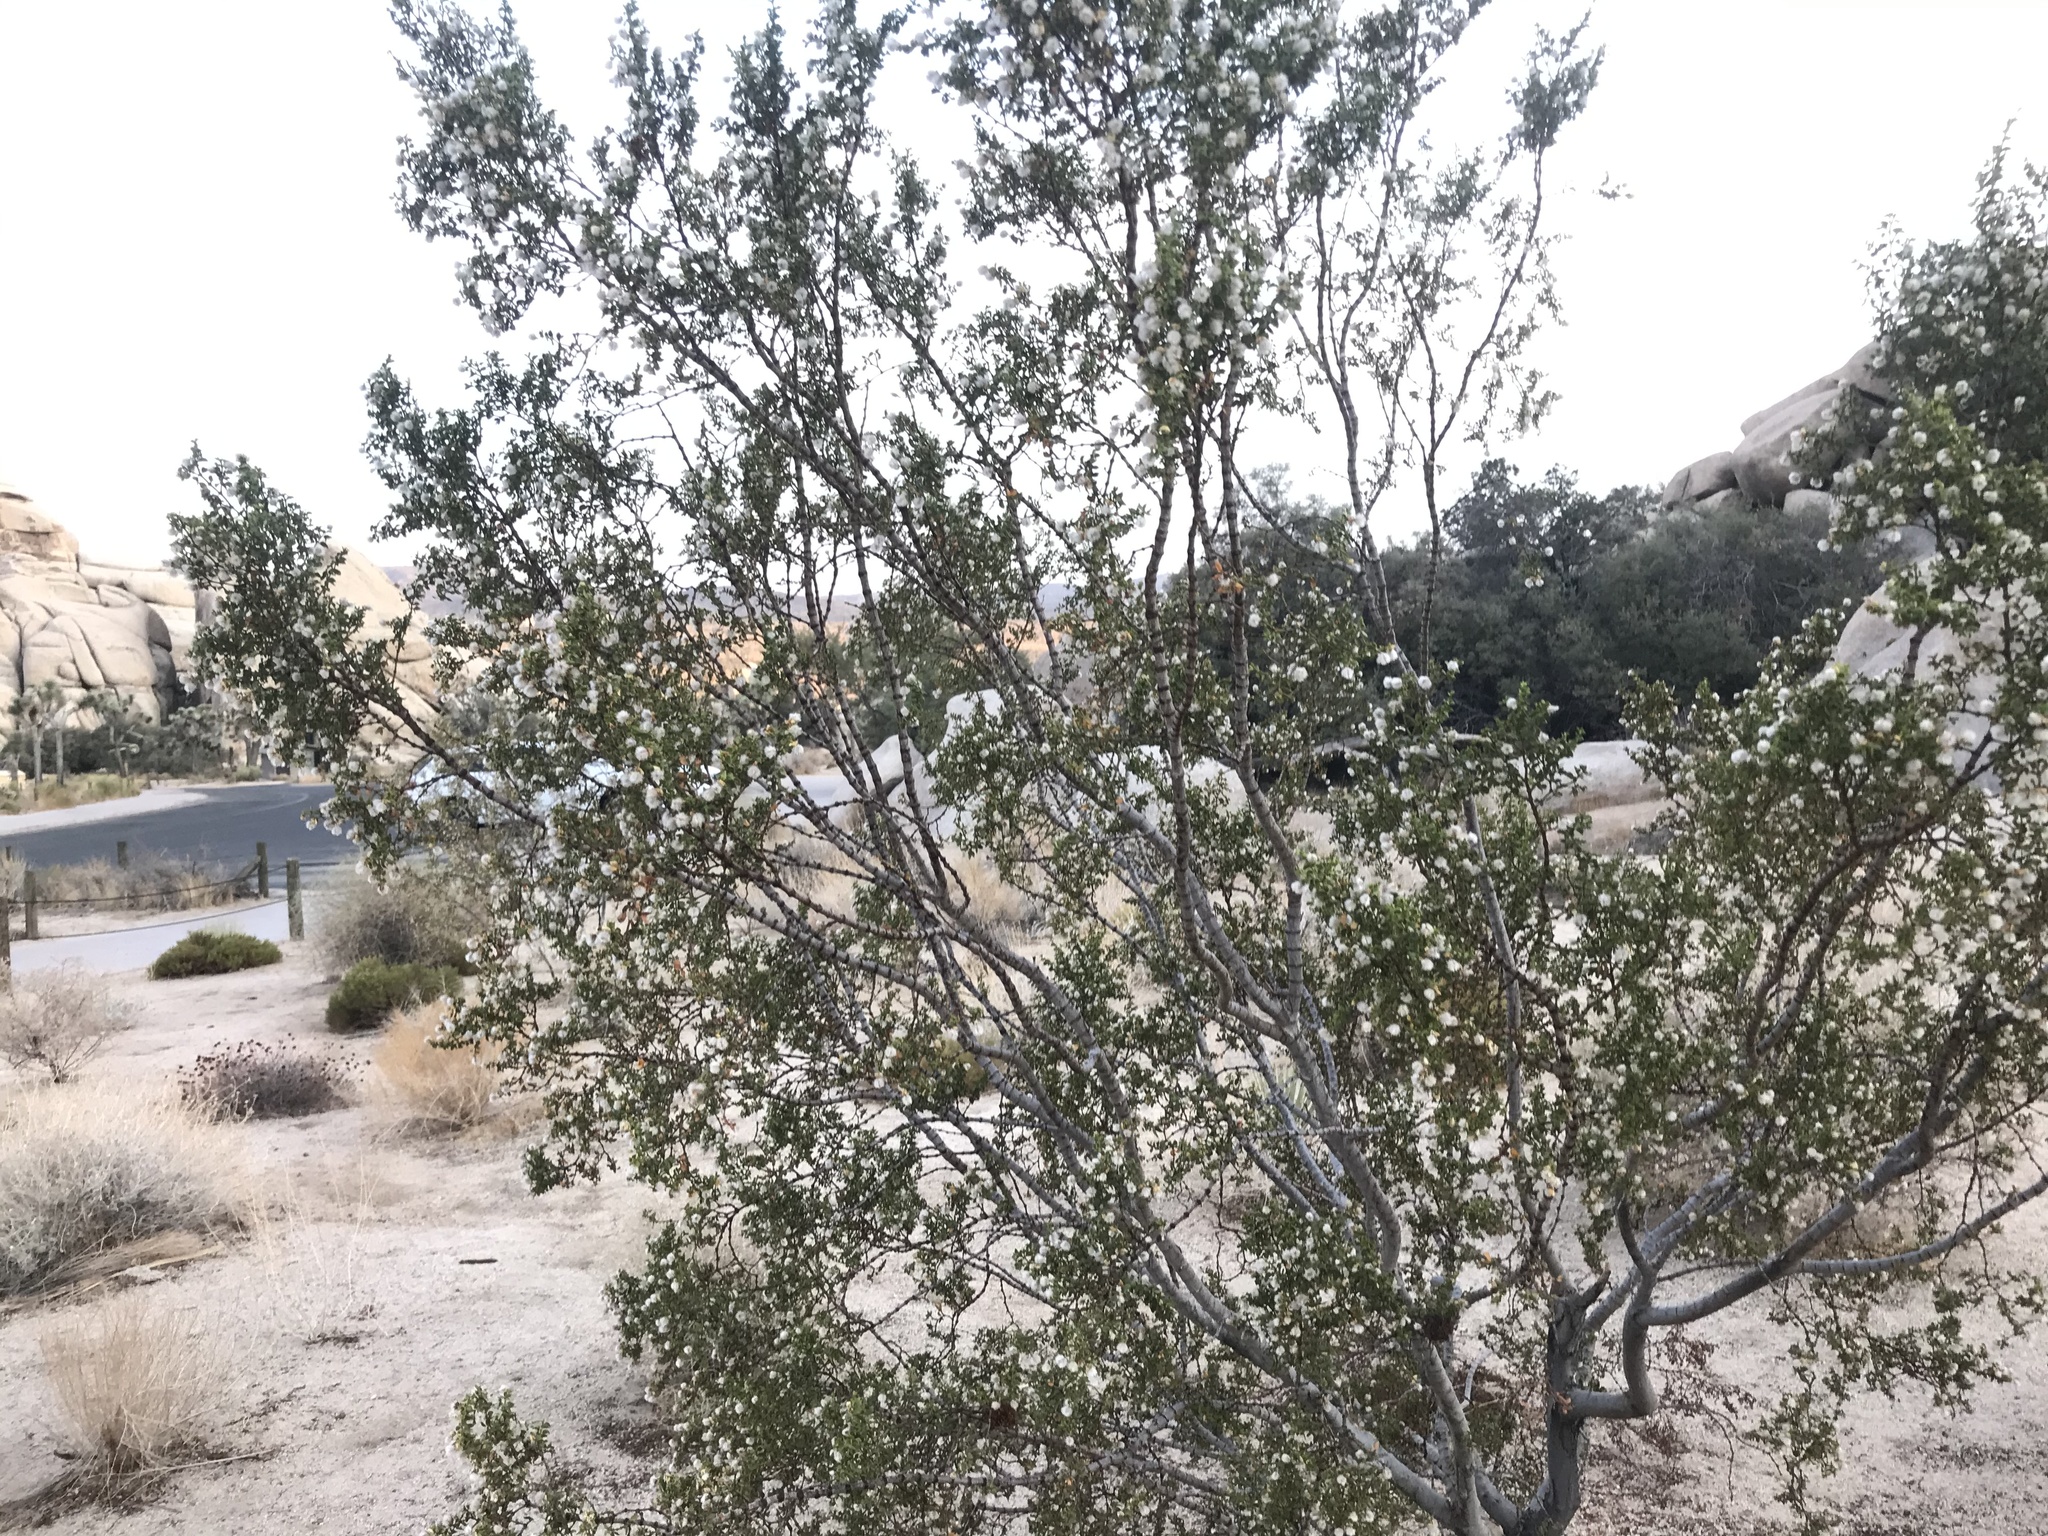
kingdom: Plantae
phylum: Tracheophyta
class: Magnoliopsida
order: Zygophyllales
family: Zygophyllaceae
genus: Larrea
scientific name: Larrea tridentata
